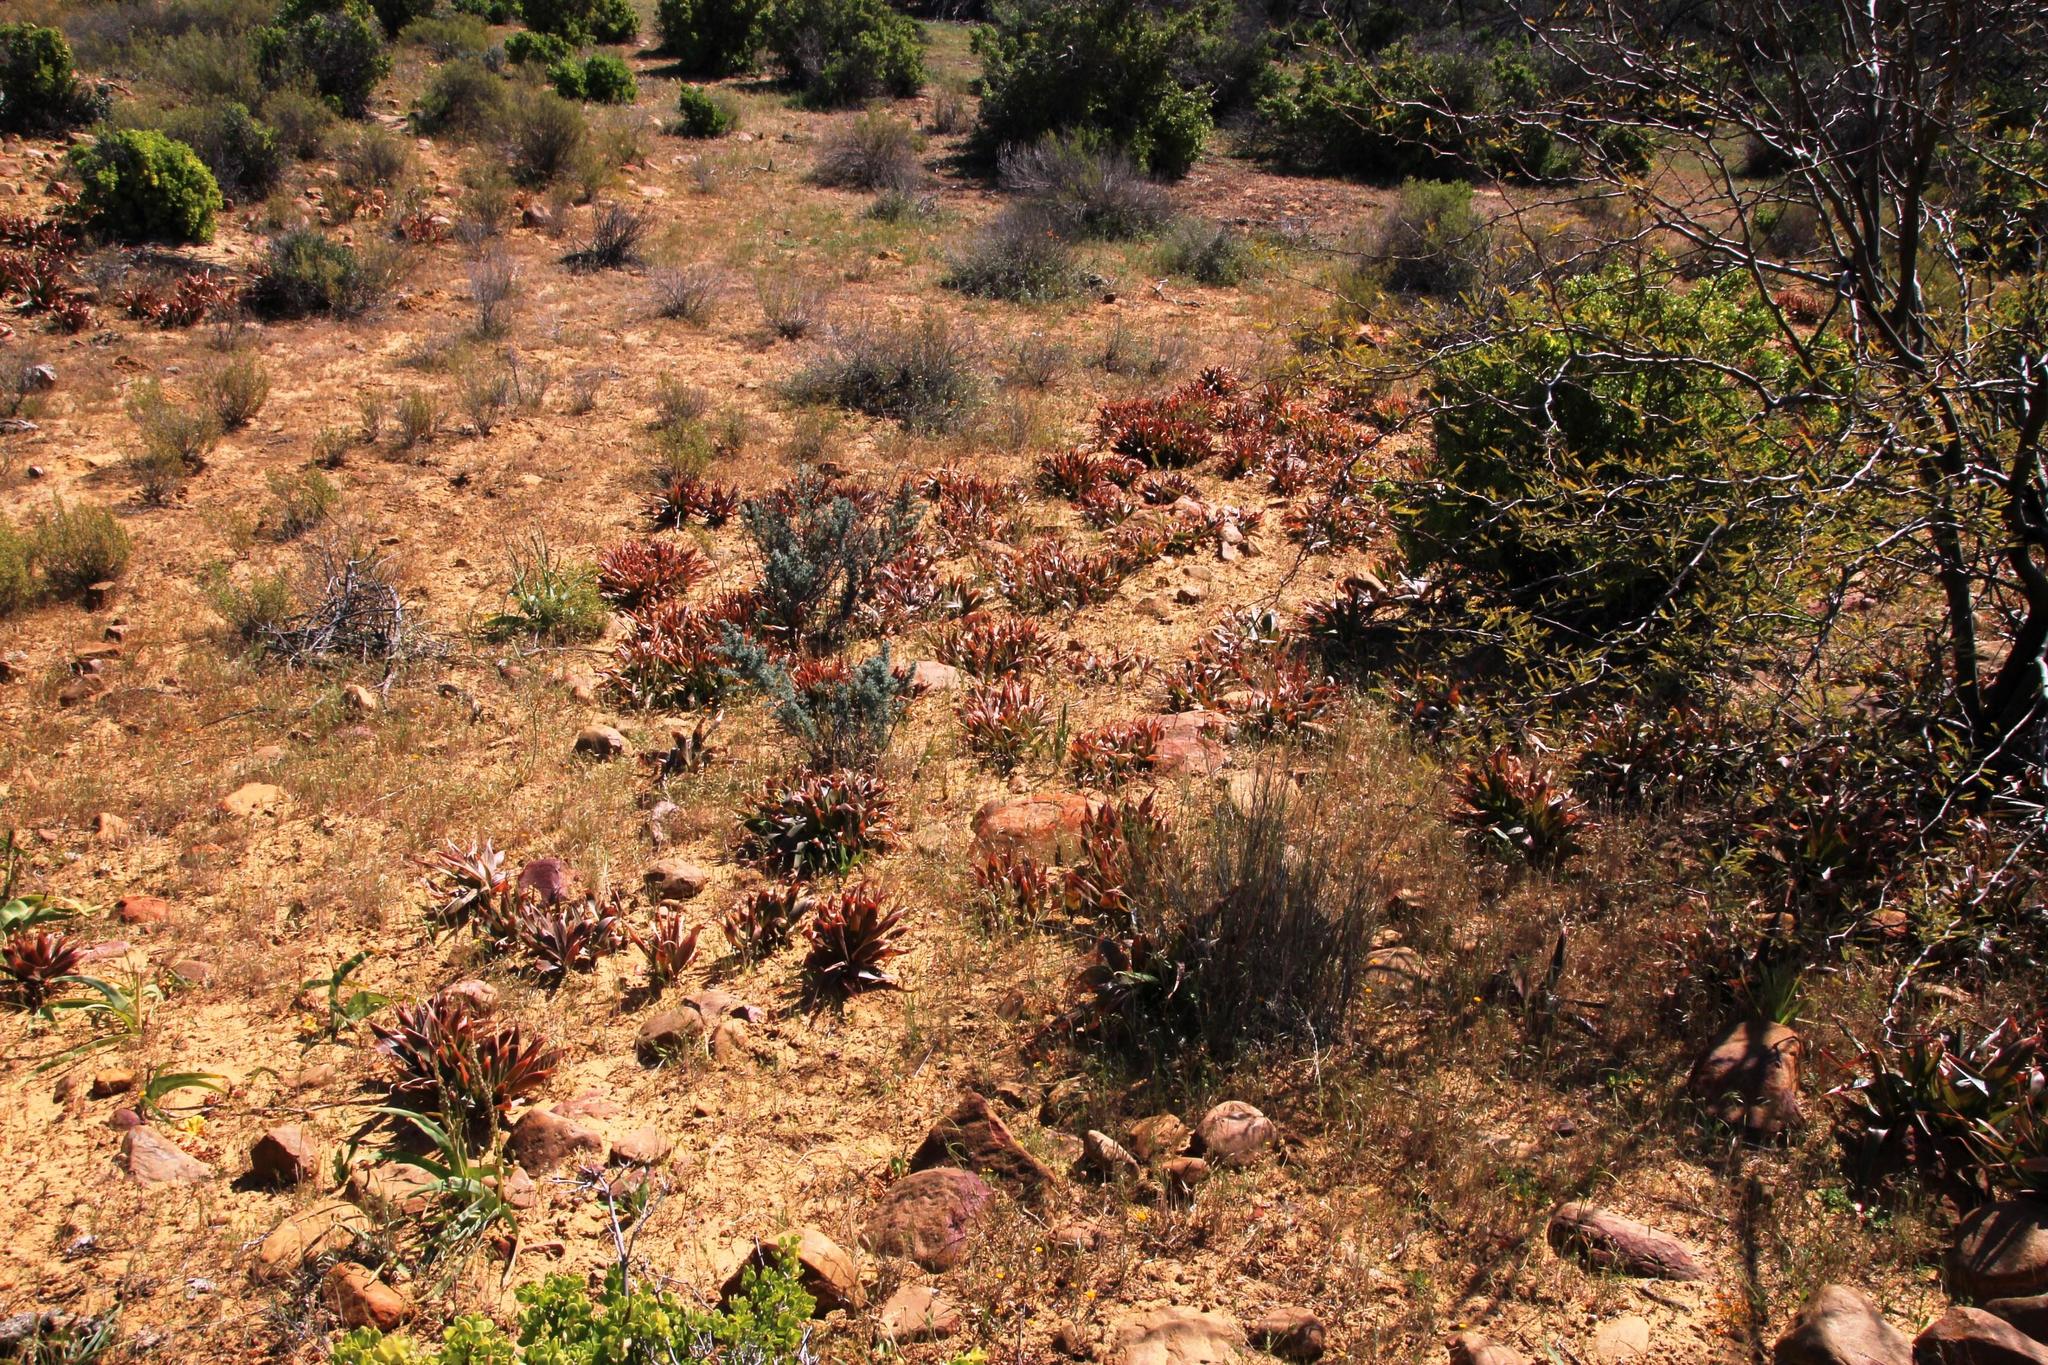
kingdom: Plantae
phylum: Tracheophyta
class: Liliopsida
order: Asparagales
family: Asphodelaceae
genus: Bulbine
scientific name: Bulbine alooides
